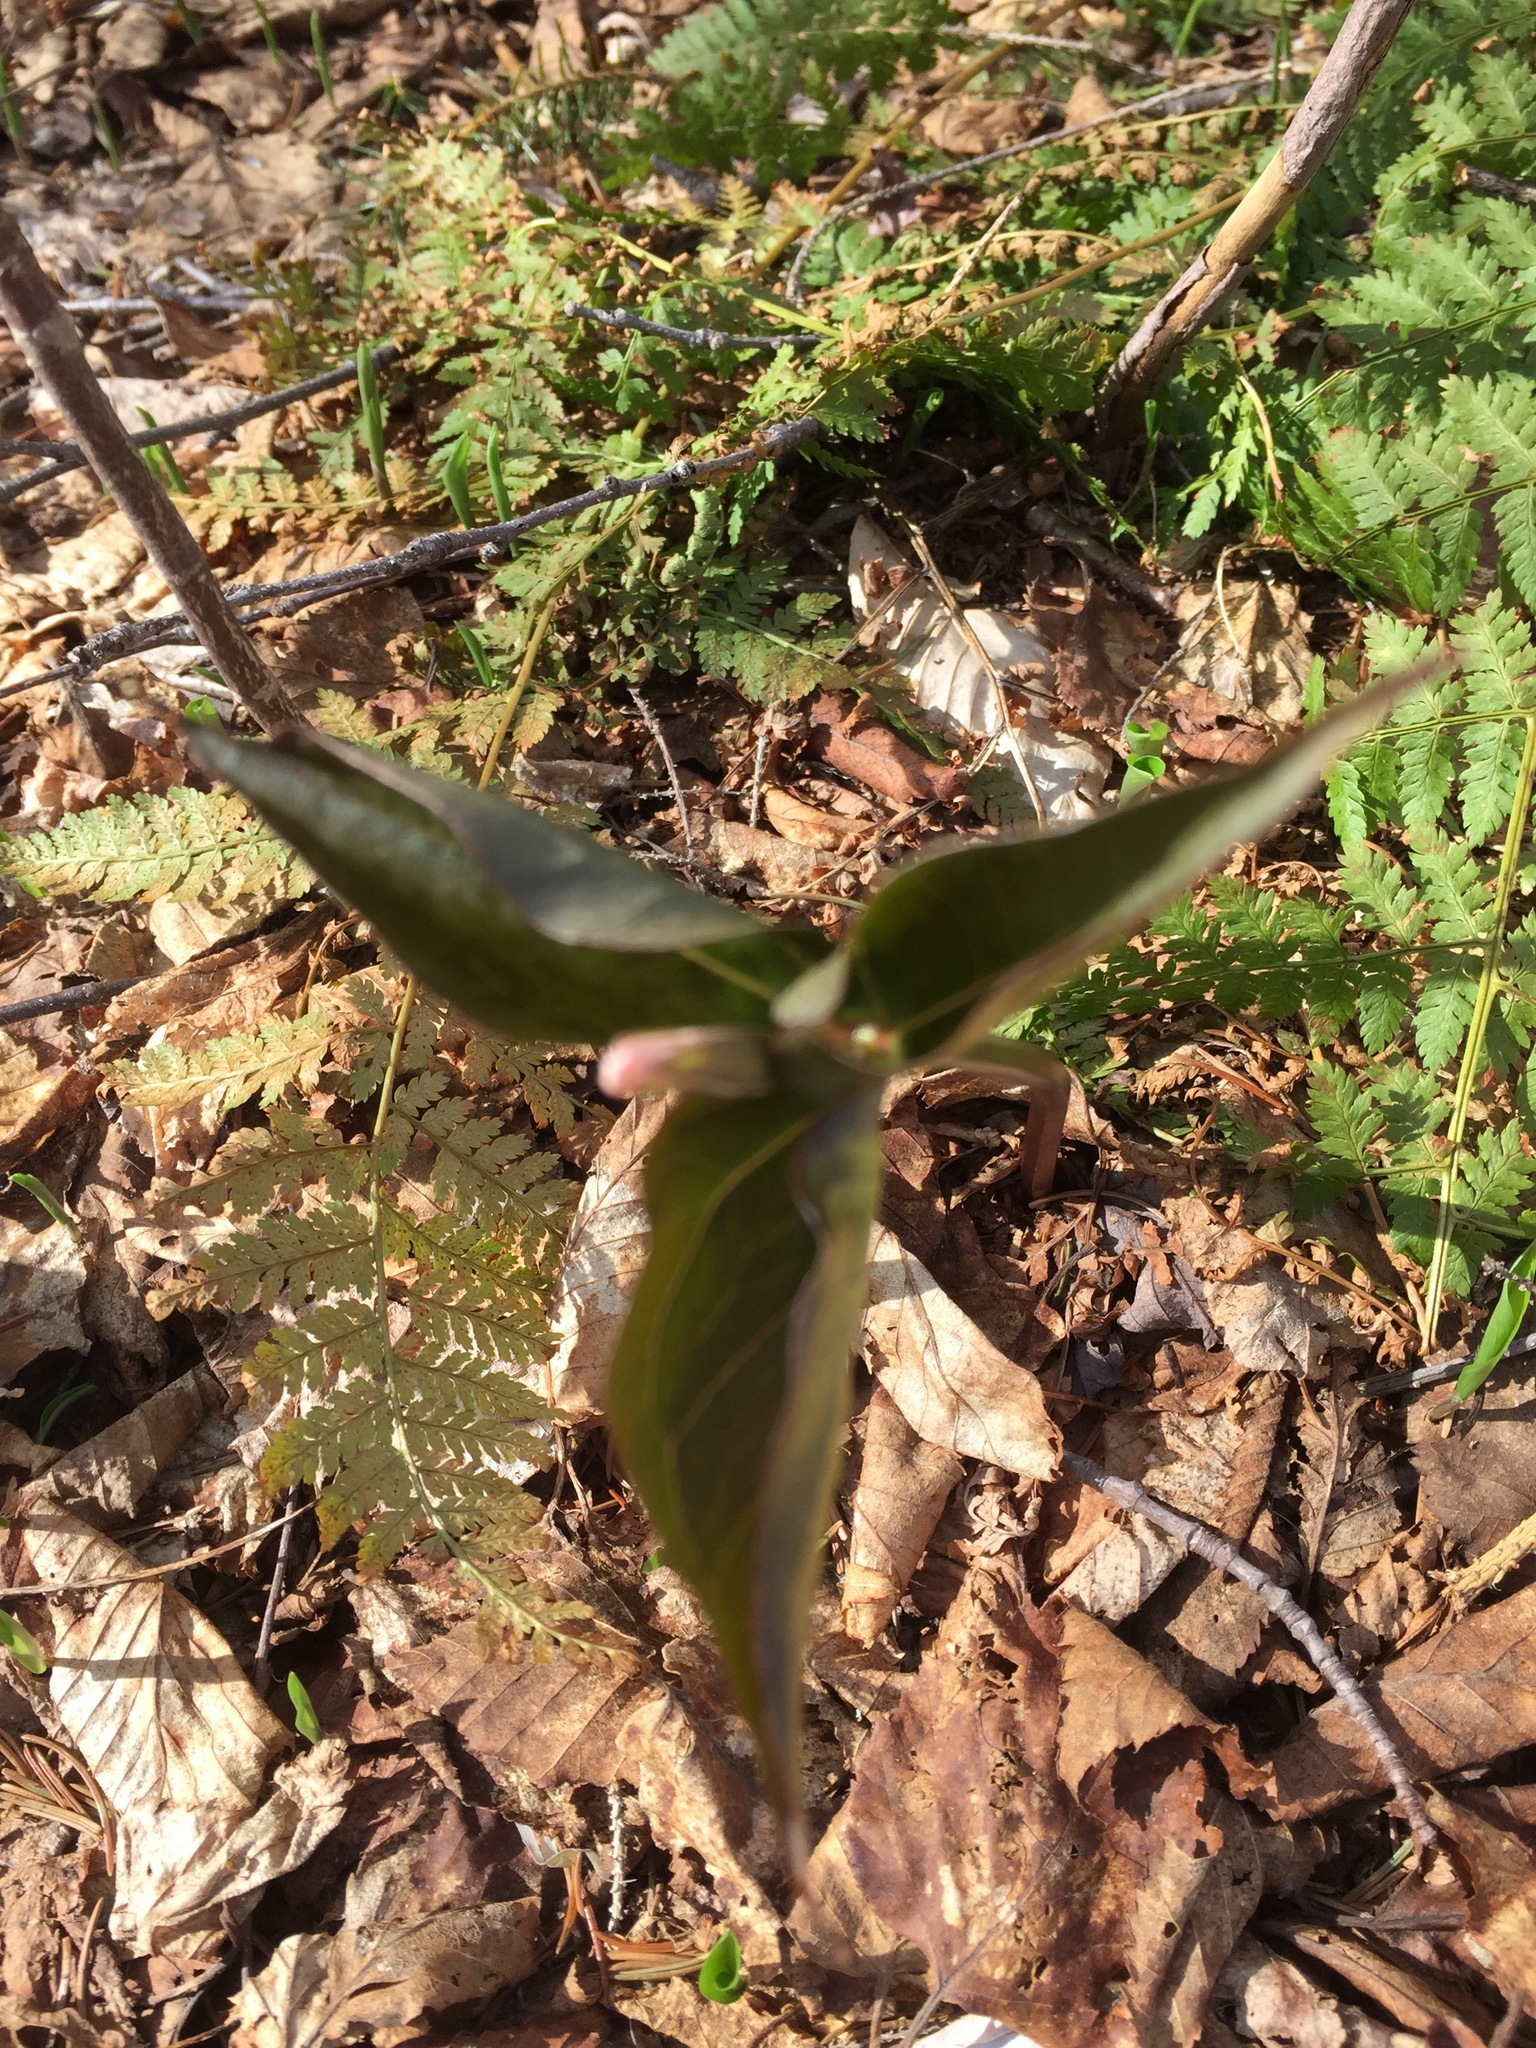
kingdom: Plantae
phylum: Tracheophyta
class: Liliopsida
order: Liliales
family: Melanthiaceae
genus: Trillium
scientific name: Trillium undulatum
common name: Paint trillium
